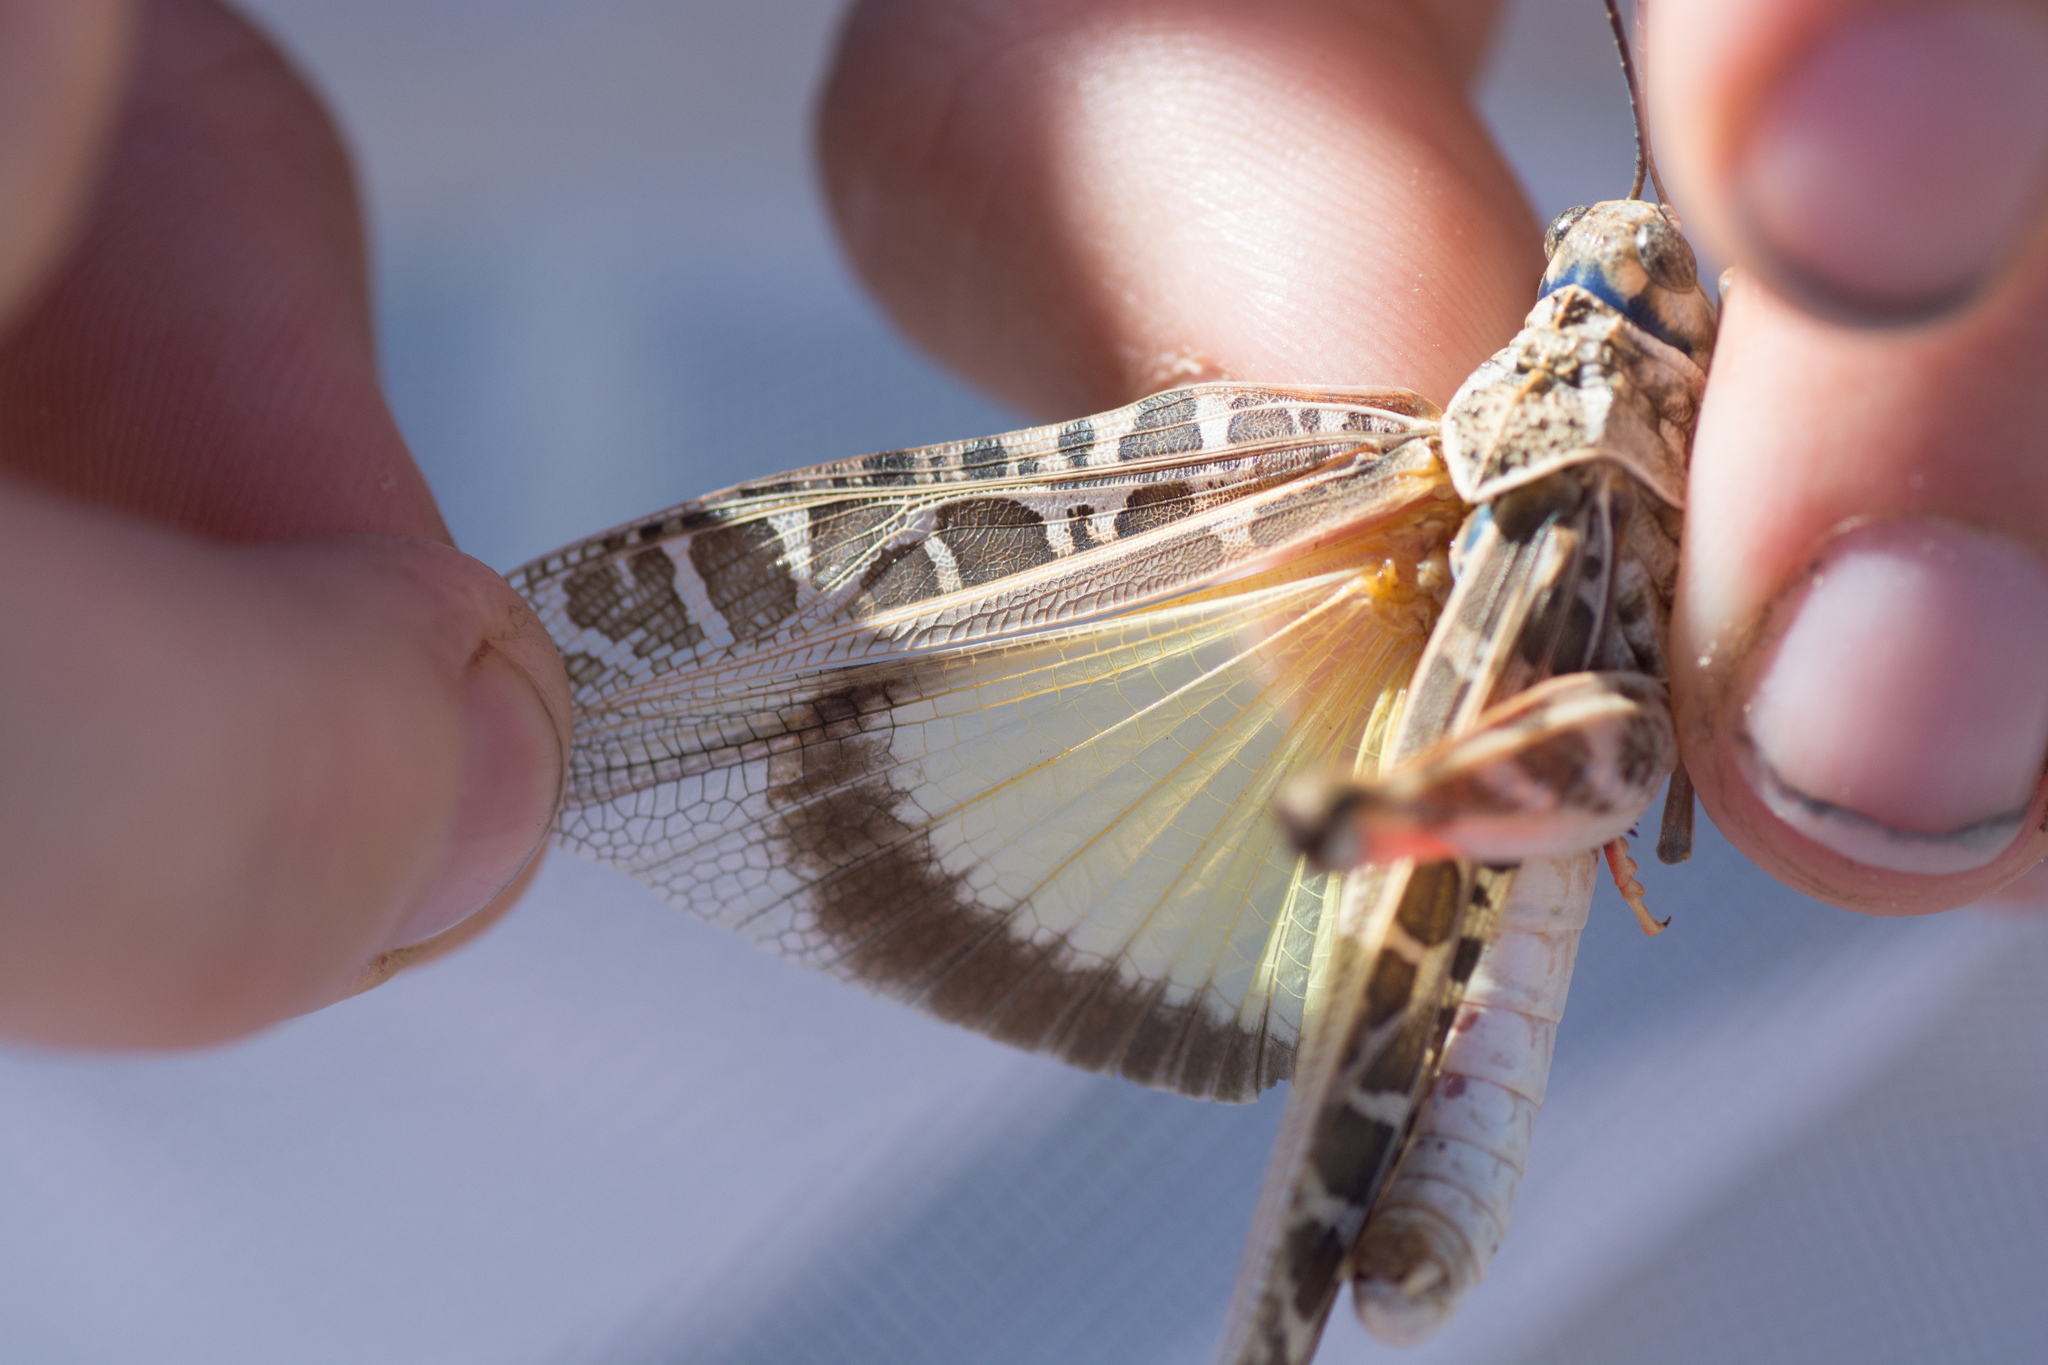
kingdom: Animalia
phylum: Arthropoda
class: Insecta
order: Orthoptera
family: Acrididae
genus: Xanthippus
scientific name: Xanthippus corallipes
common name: Redshanked grasshopper
